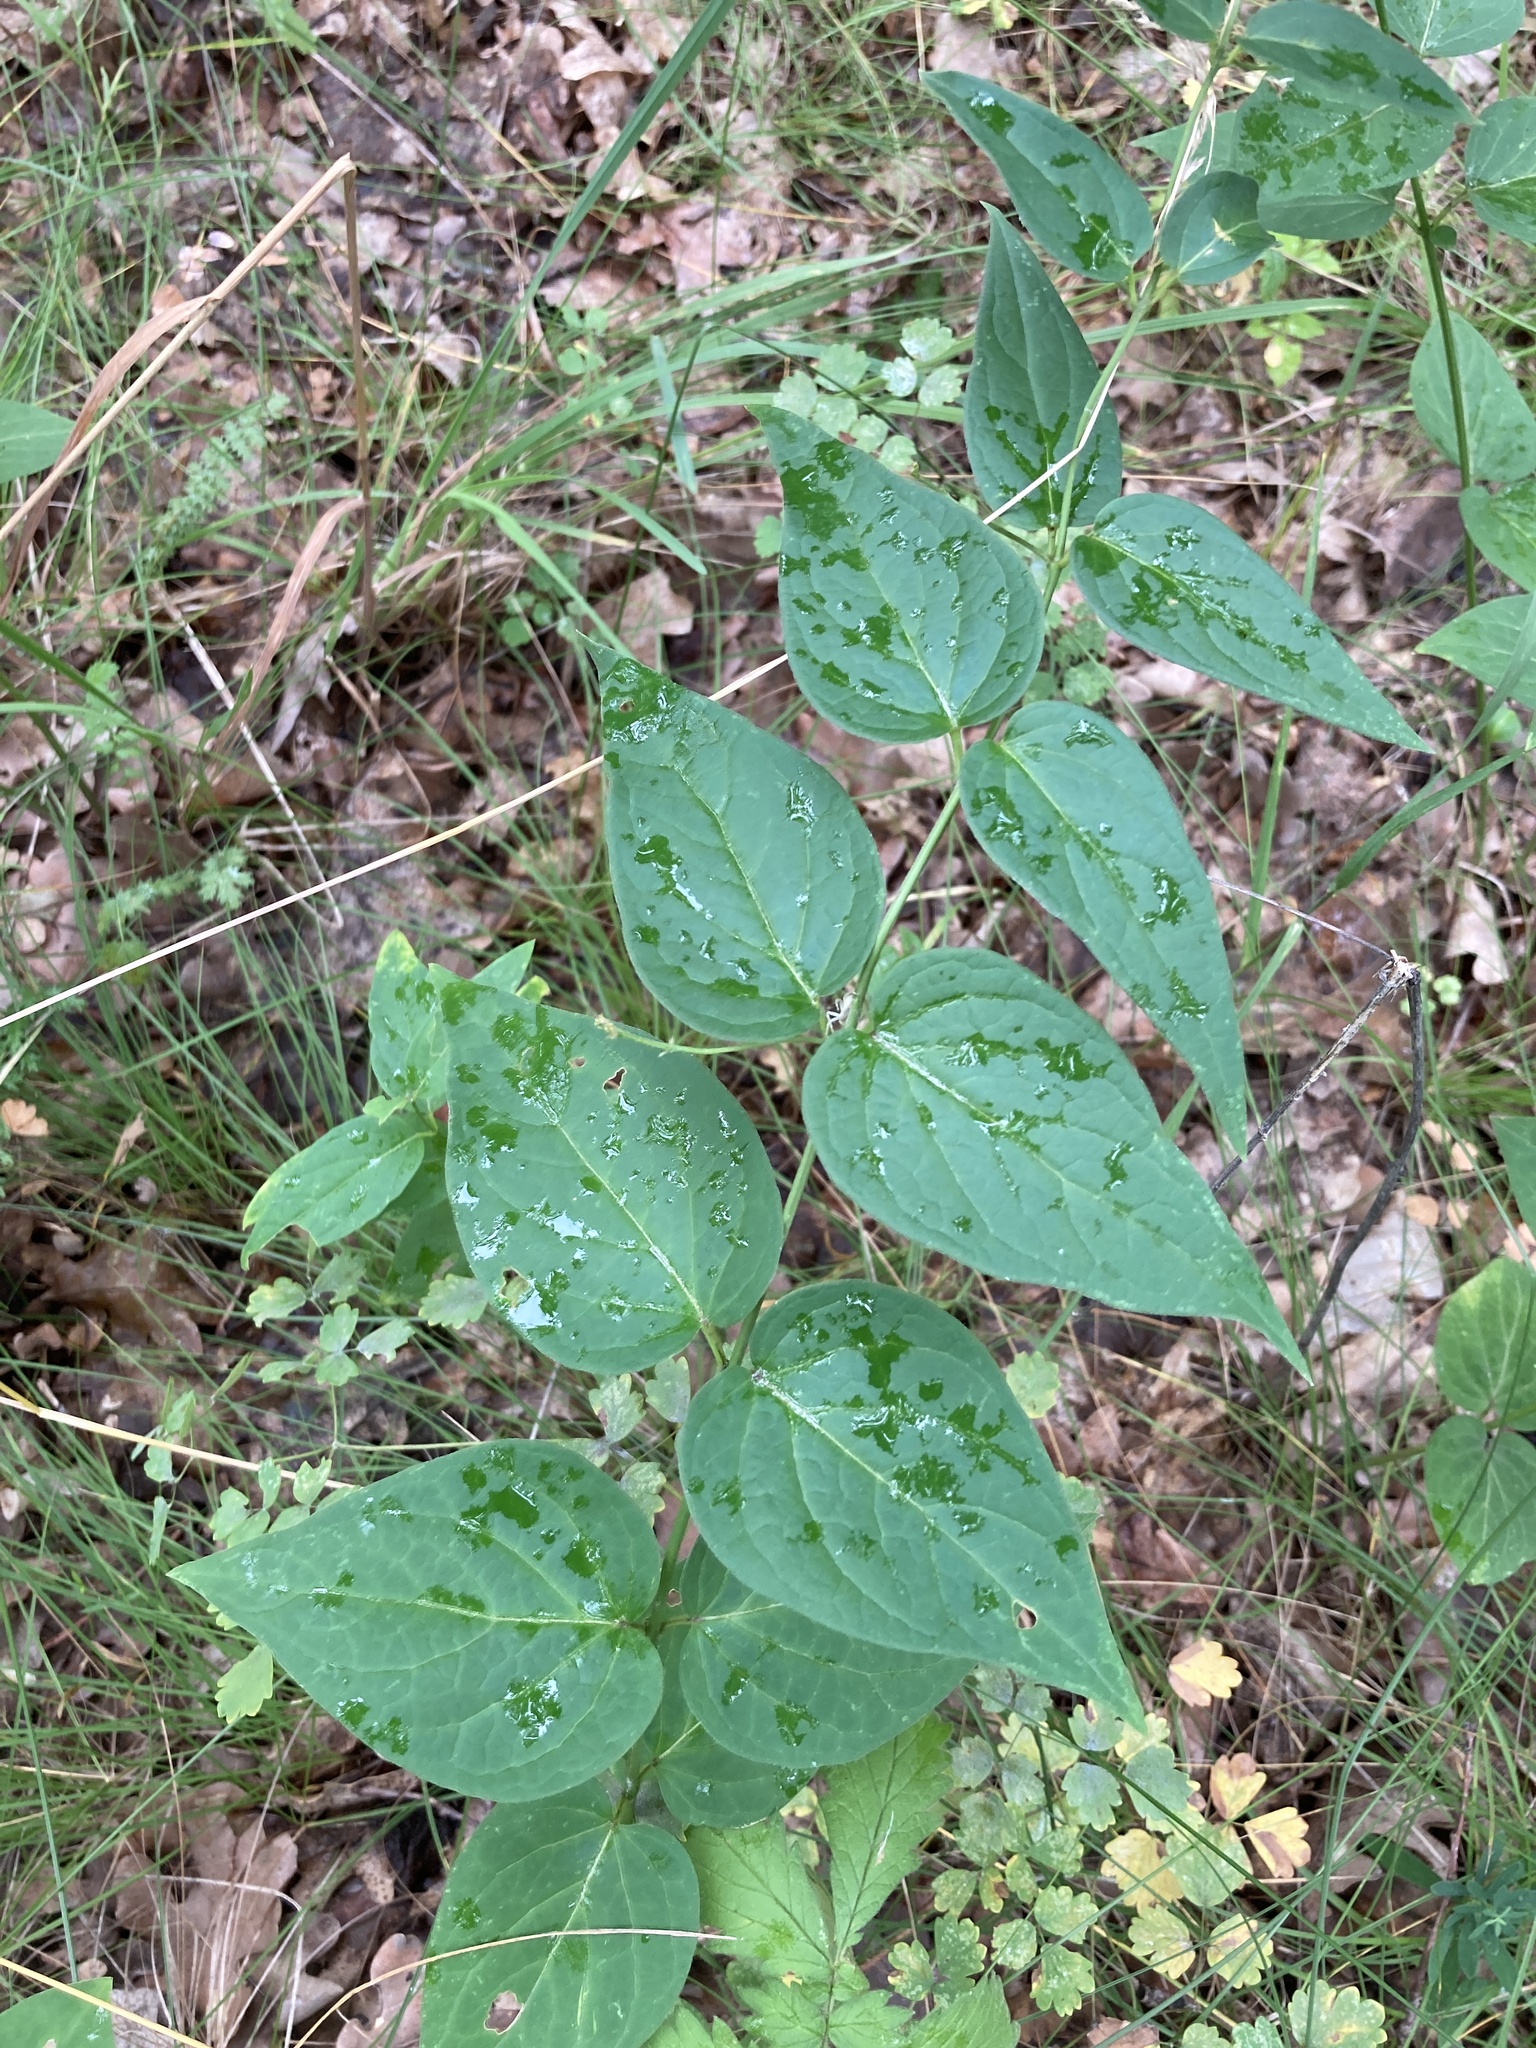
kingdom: Plantae
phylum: Tracheophyta
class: Magnoliopsida
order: Gentianales
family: Apocynaceae
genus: Vincetoxicum
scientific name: Vincetoxicum hirundinaria
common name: White swallowwort
